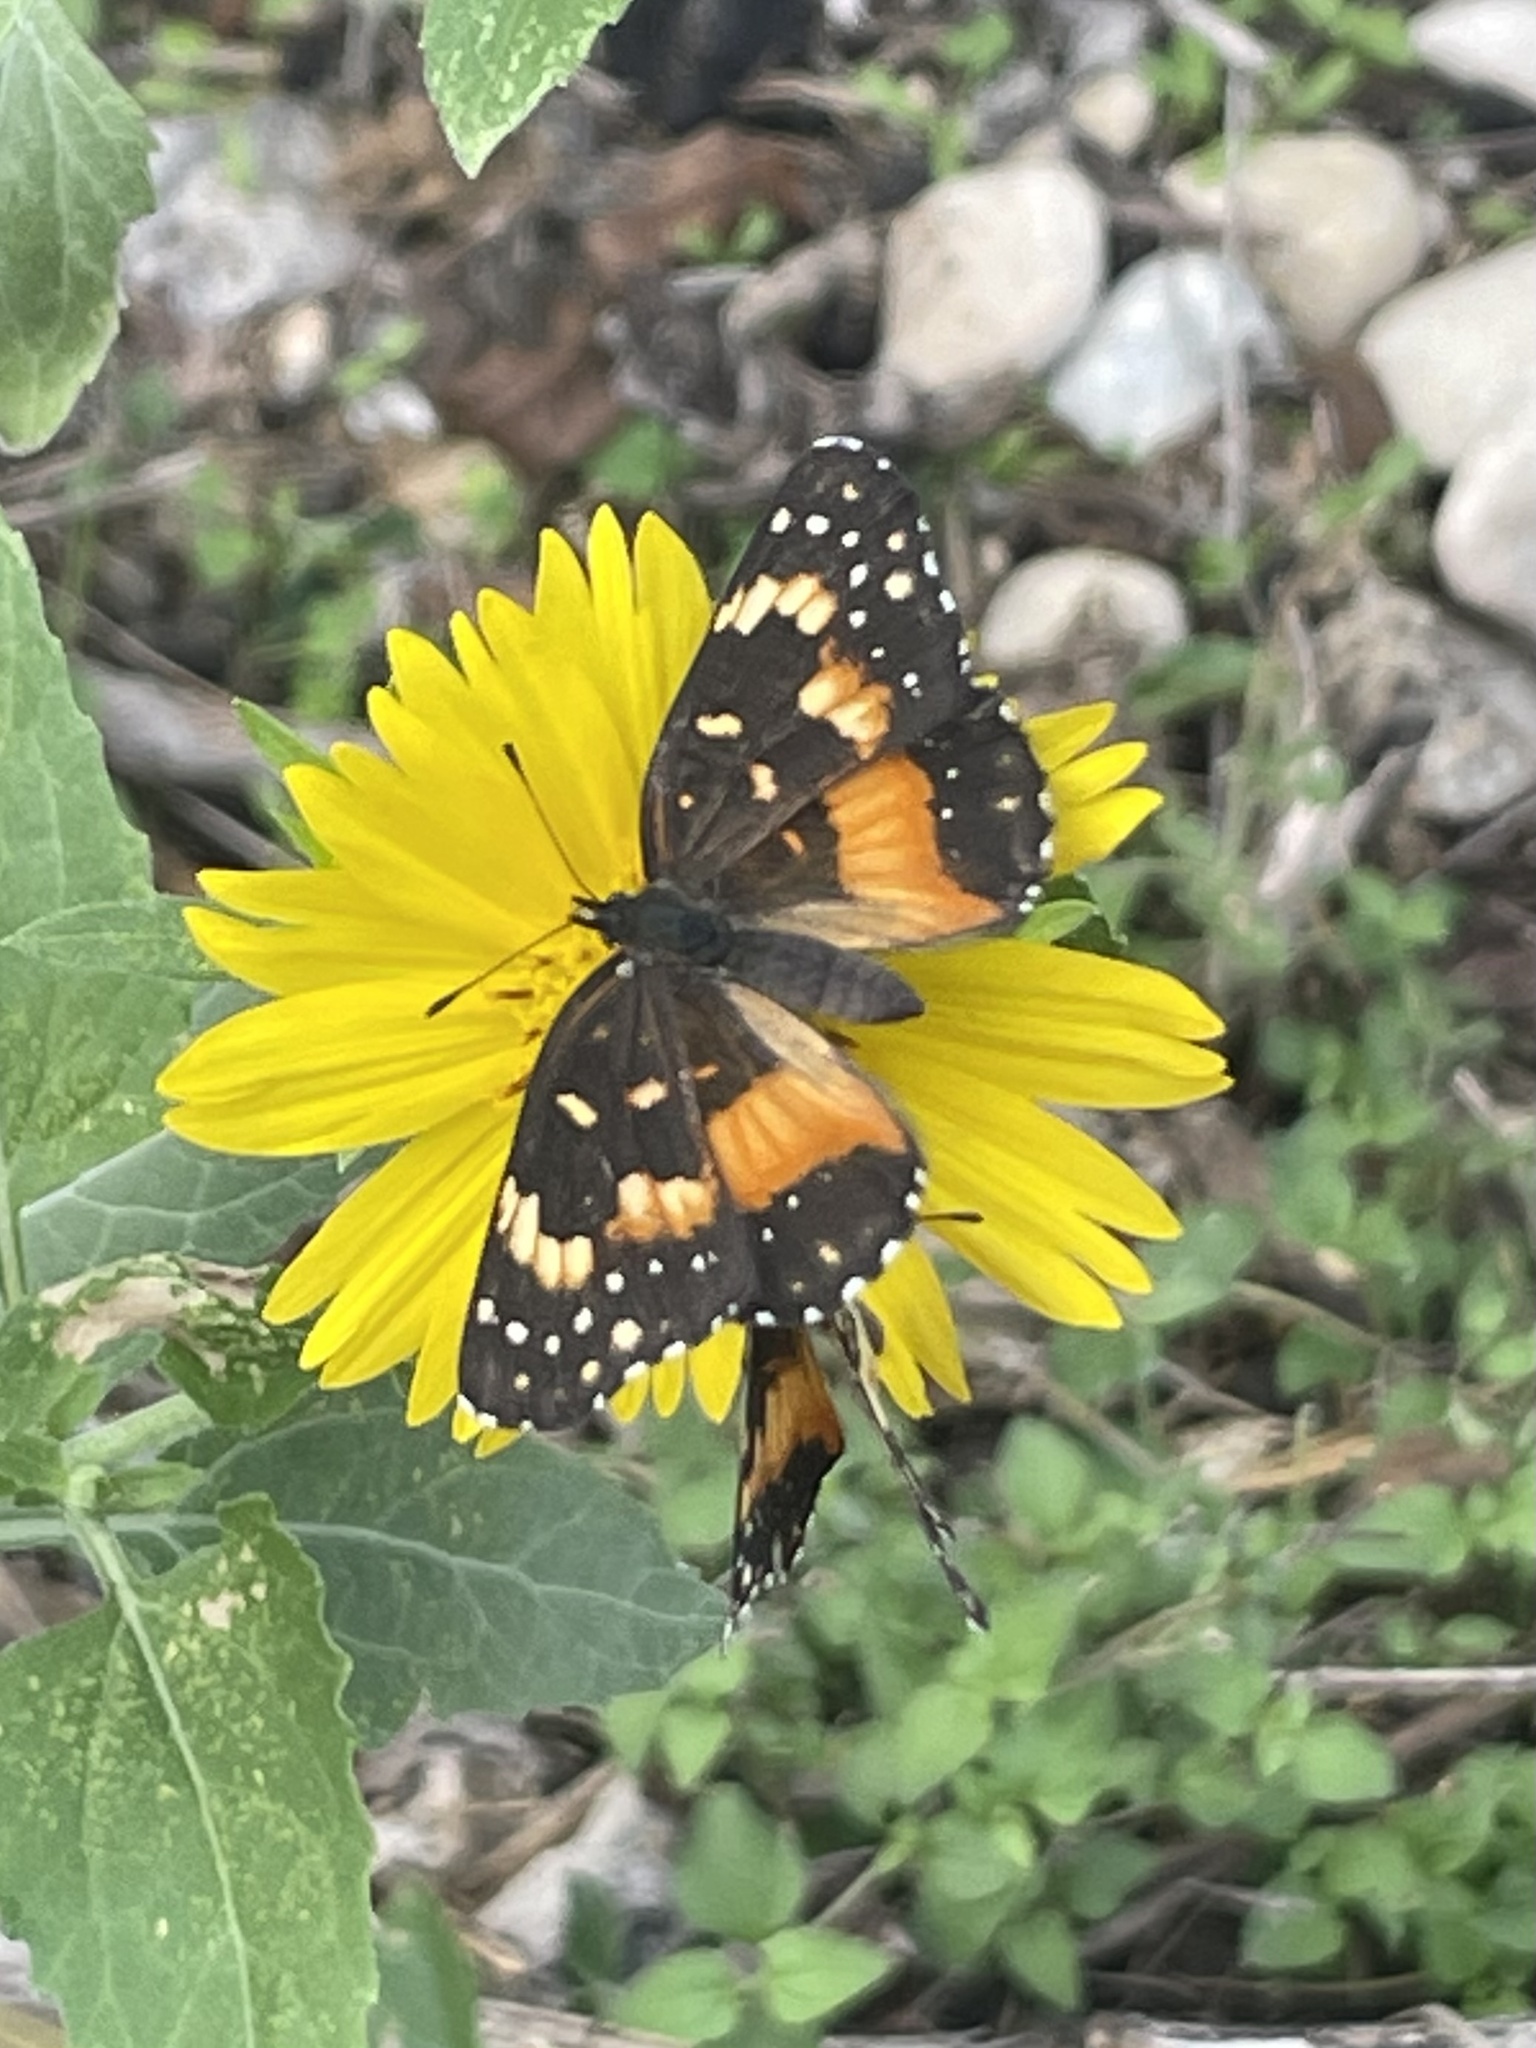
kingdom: Animalia
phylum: Arthropoda
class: Insecta
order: Lepidoptera
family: Nymphalidae
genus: Chlosyne
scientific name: Chlosyne lacinia
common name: Bordered patch
